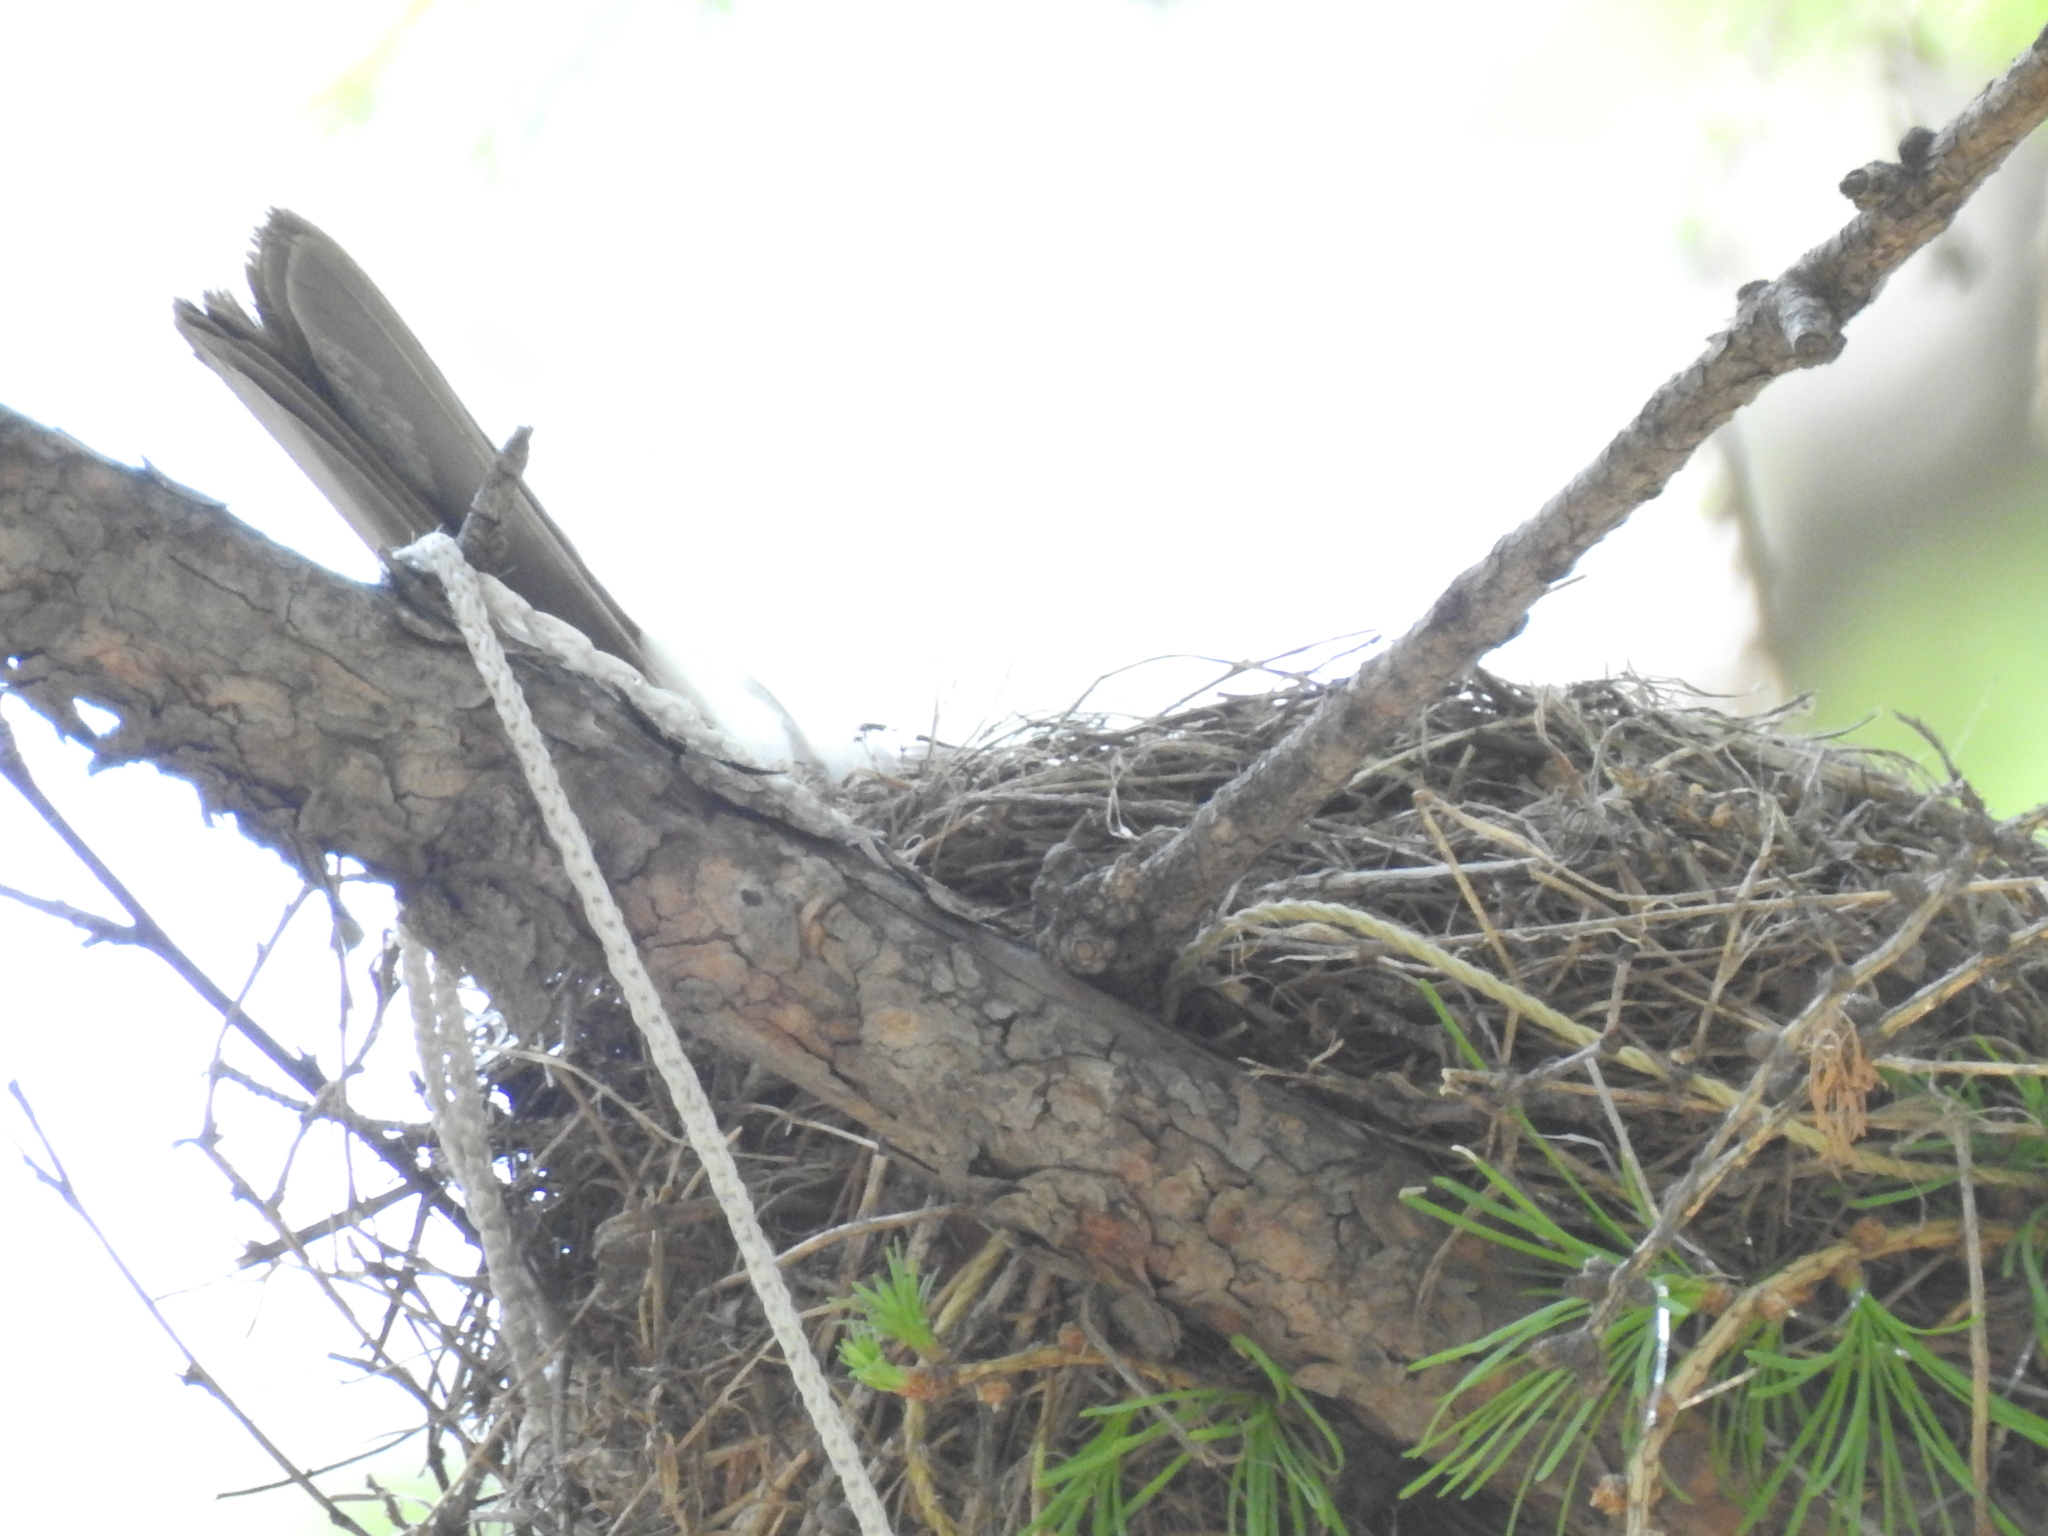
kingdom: Animalia
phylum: Chordata
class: Aves
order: Passeriformes
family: Turdidae
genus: Turdus
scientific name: Turdus pilaris
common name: Fieldfare
